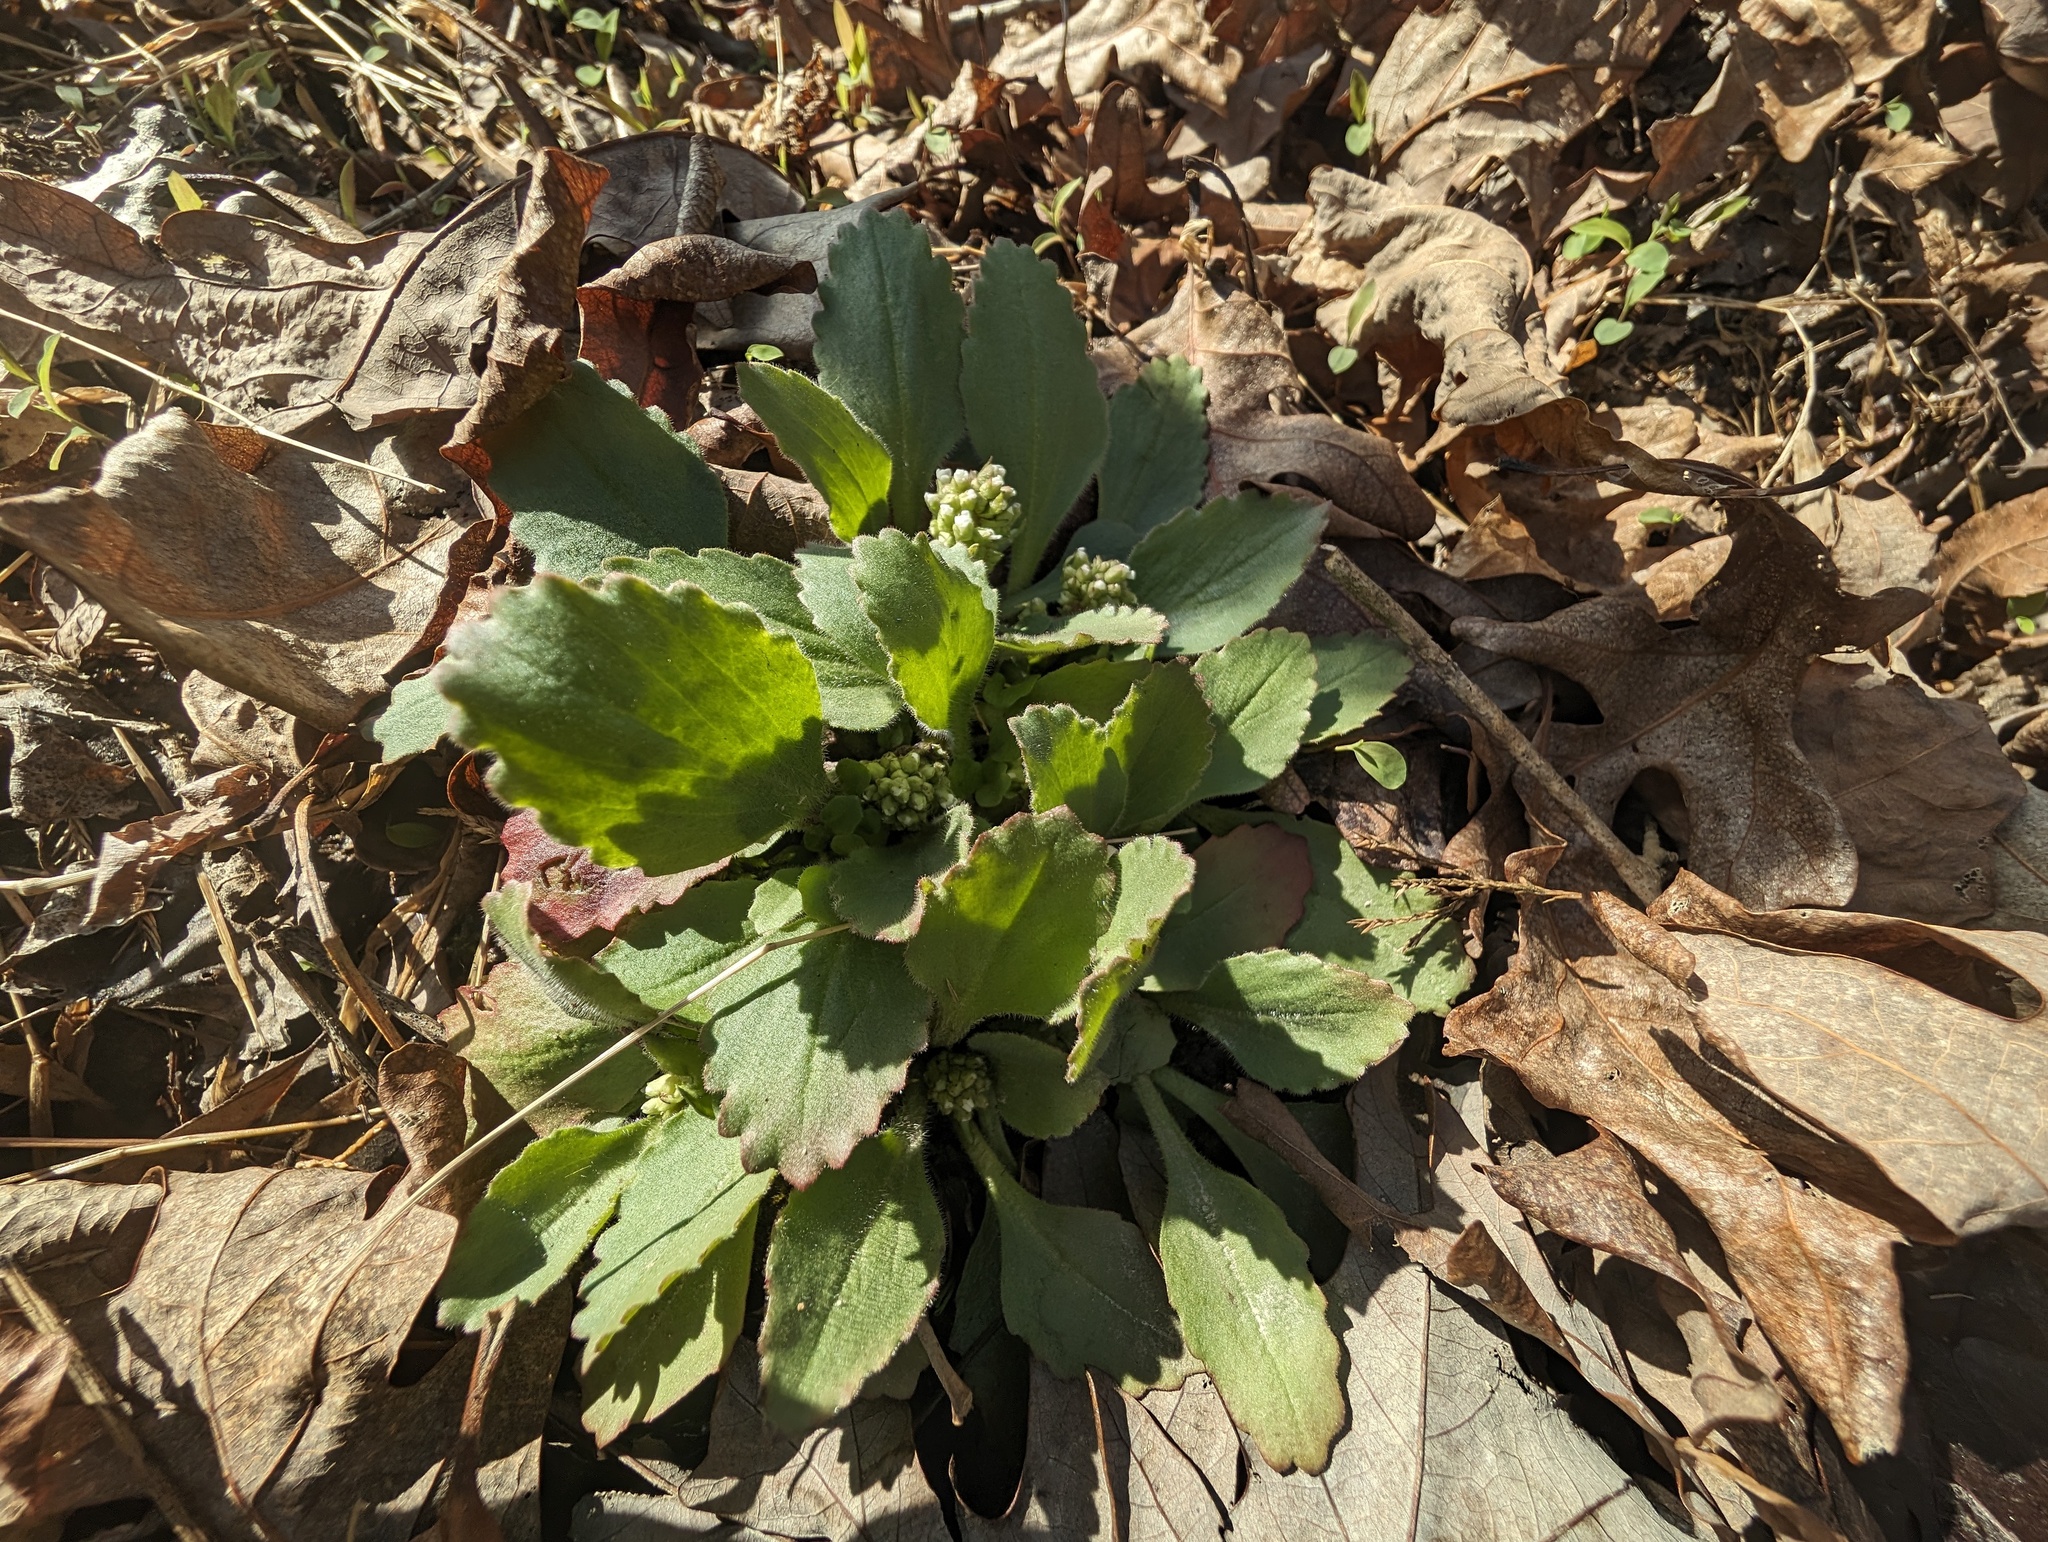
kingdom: Plantae
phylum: Tracheophyta
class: Magnoliopsida
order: Saxifragales
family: Saxifragaceae
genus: Micranthes
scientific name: Micranthes virginiensis
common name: Early saxifrage
